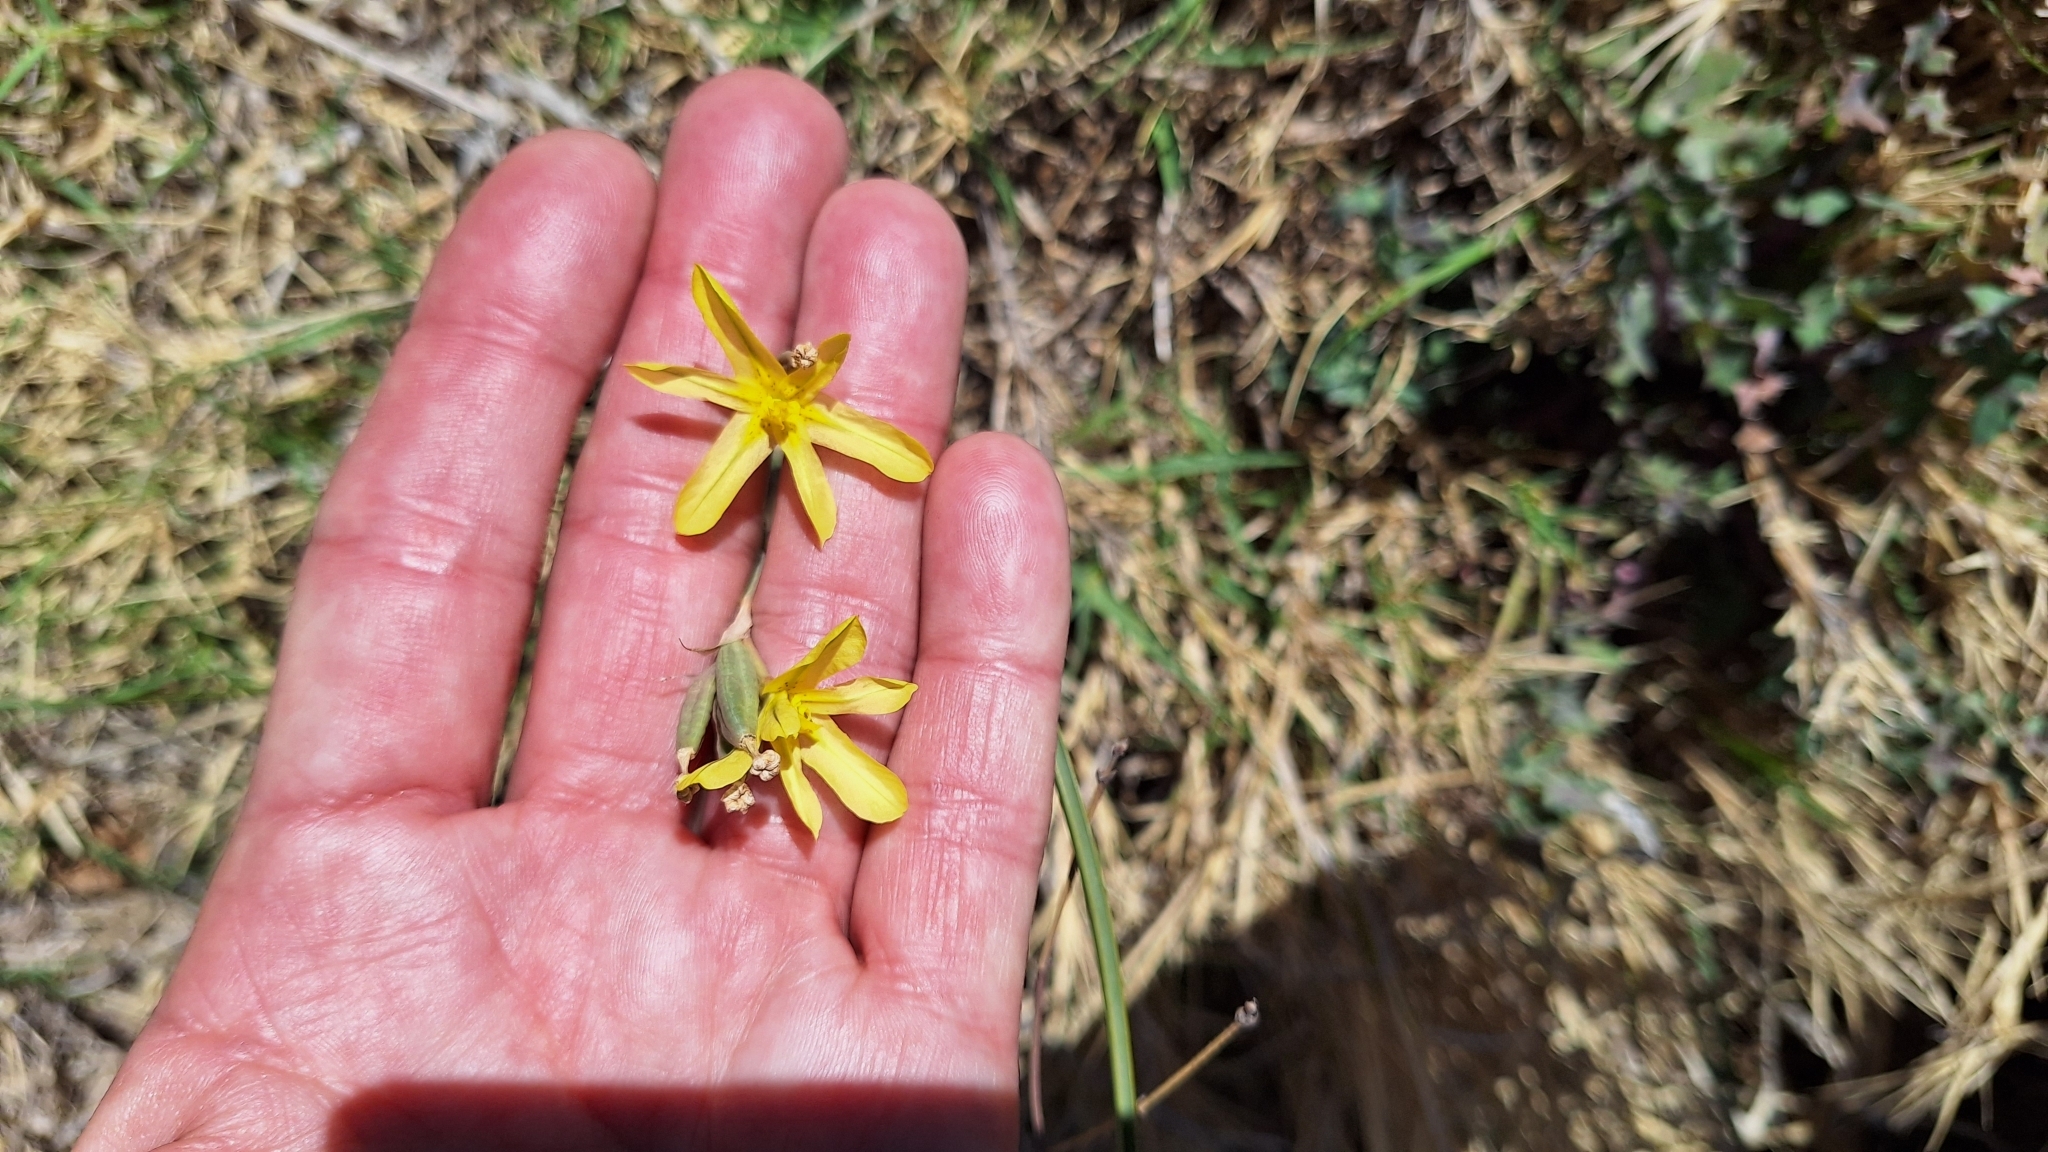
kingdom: Plantae
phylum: Tracheophyta
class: Liliopsida
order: Asparagales
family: Iridaceae
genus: Moraea
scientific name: Moraea pallida
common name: Yellow tulp
